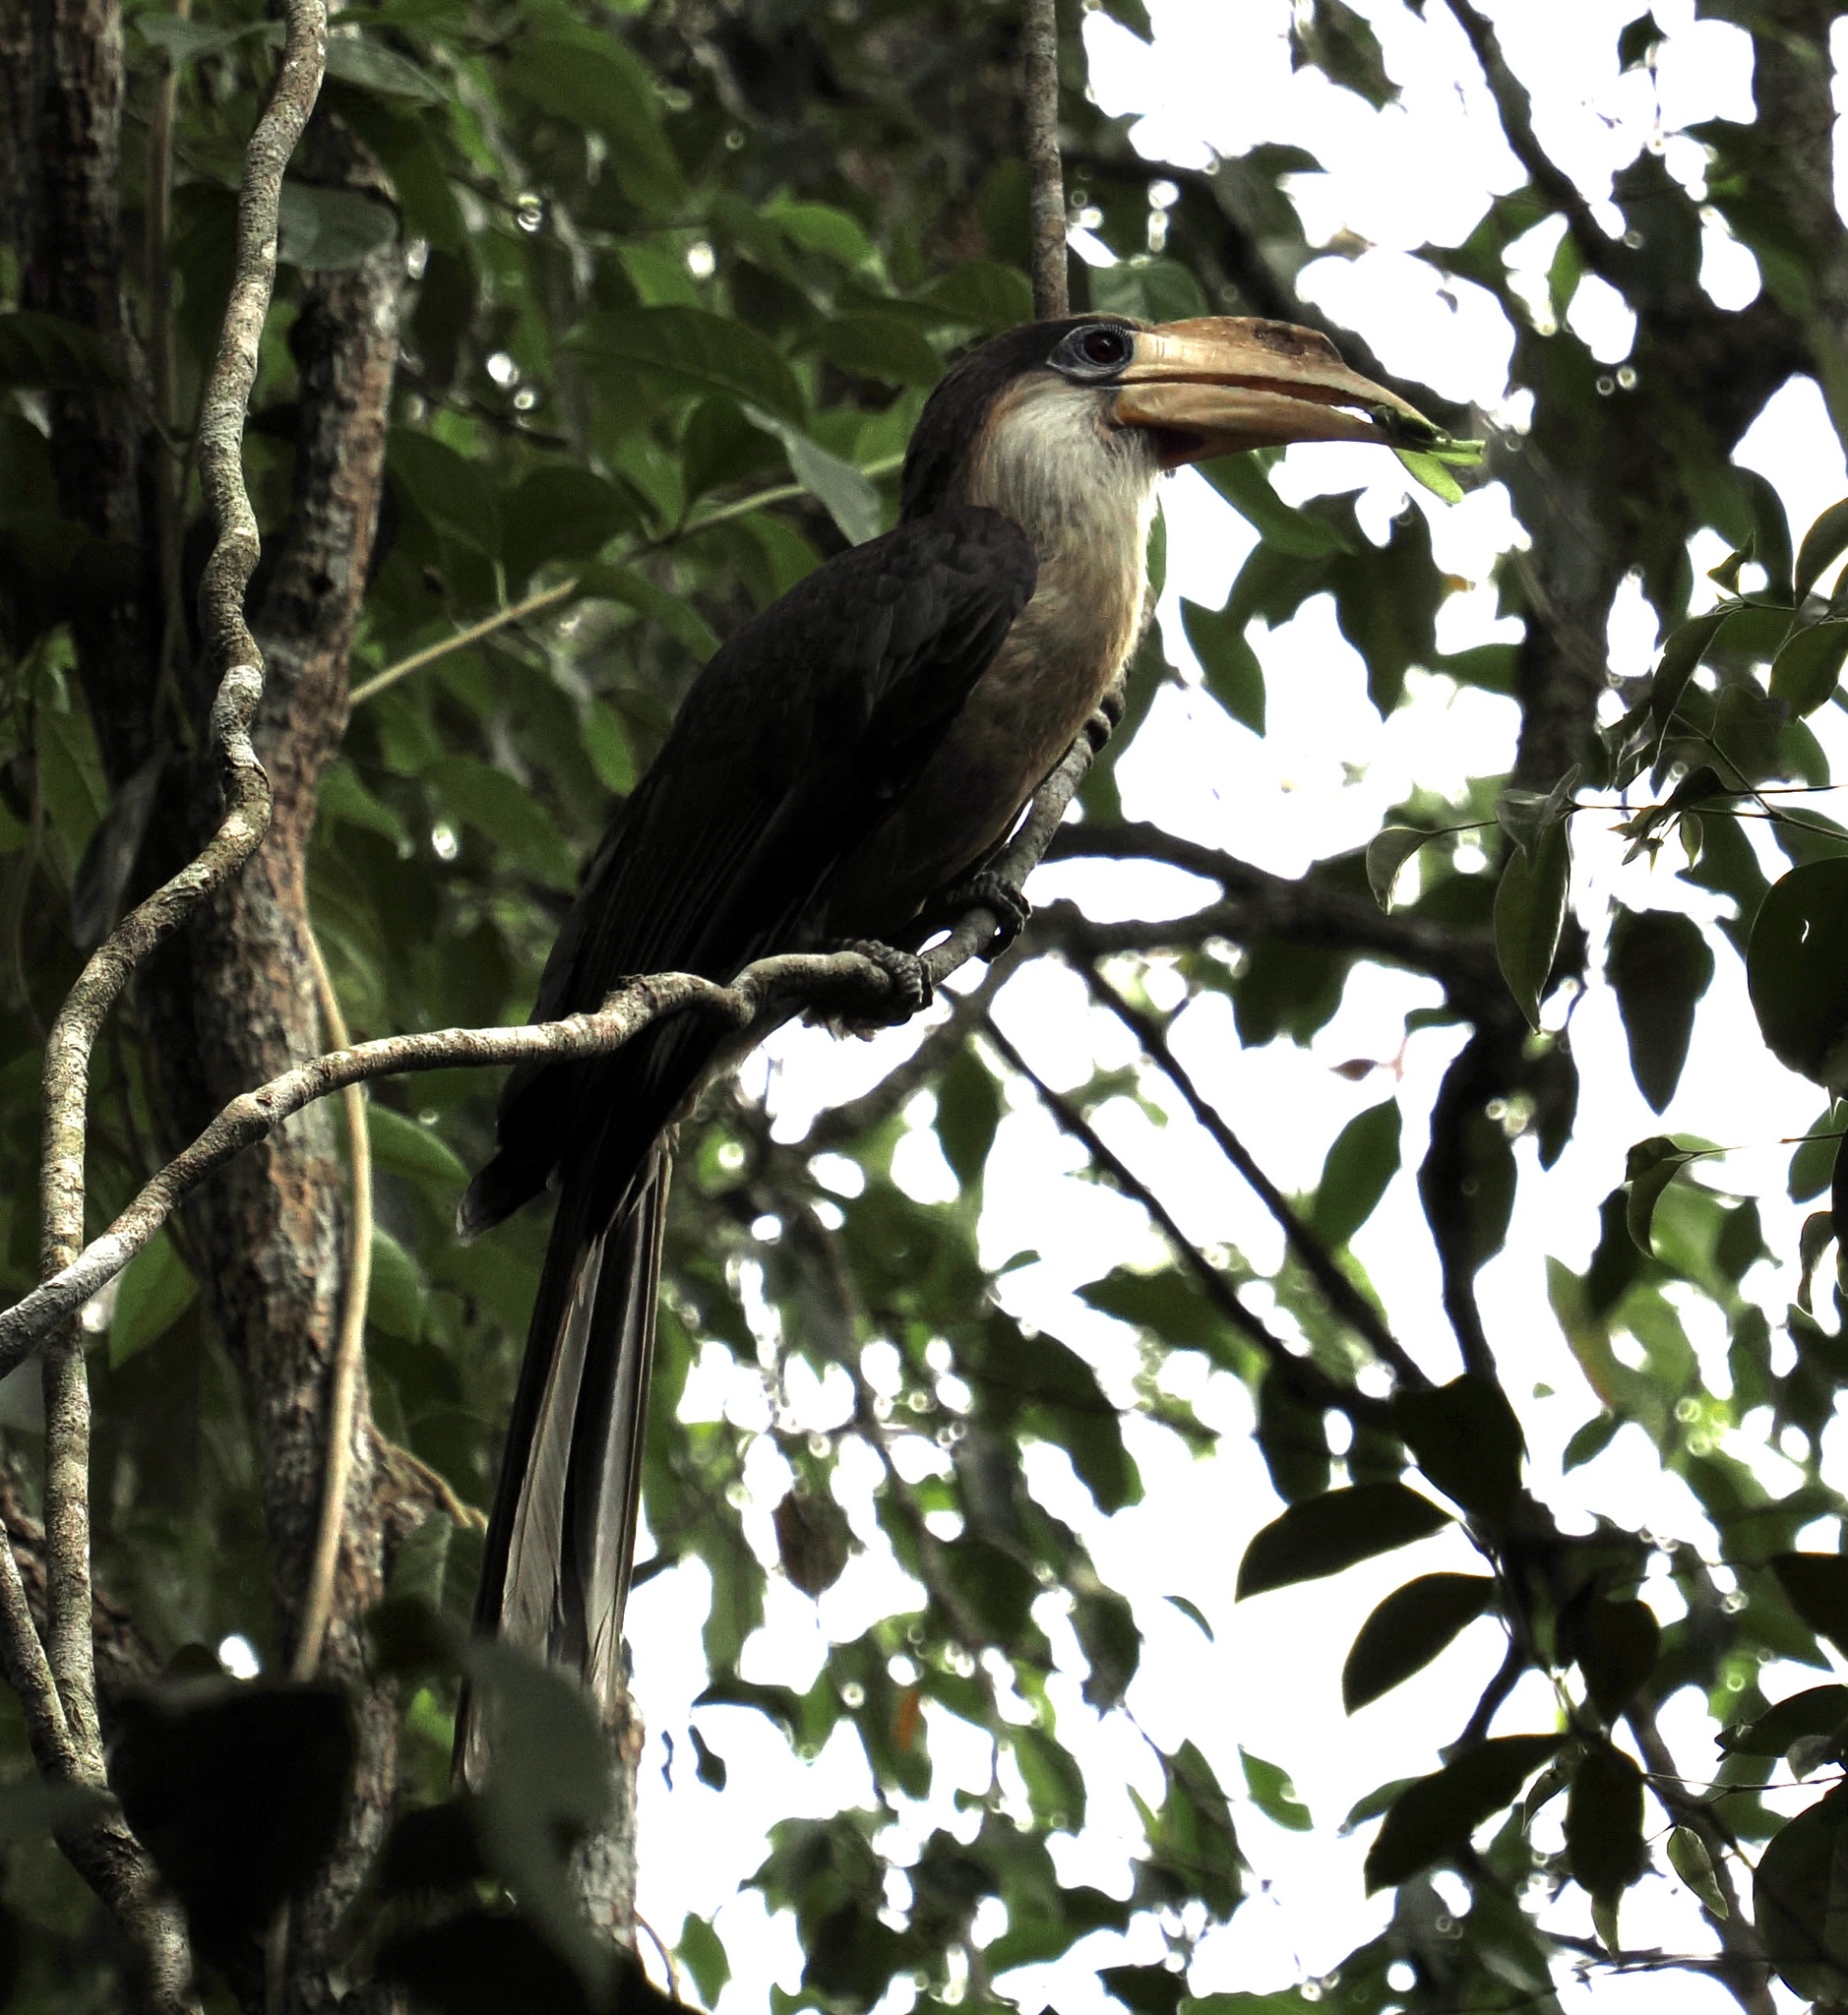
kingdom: Animalia
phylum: Chordata
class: Aves
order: Bucerotiformes
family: Bucerotidae
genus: Anorrhinus
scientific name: Anorrhinus austeni
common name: Austen's brown hornbill
